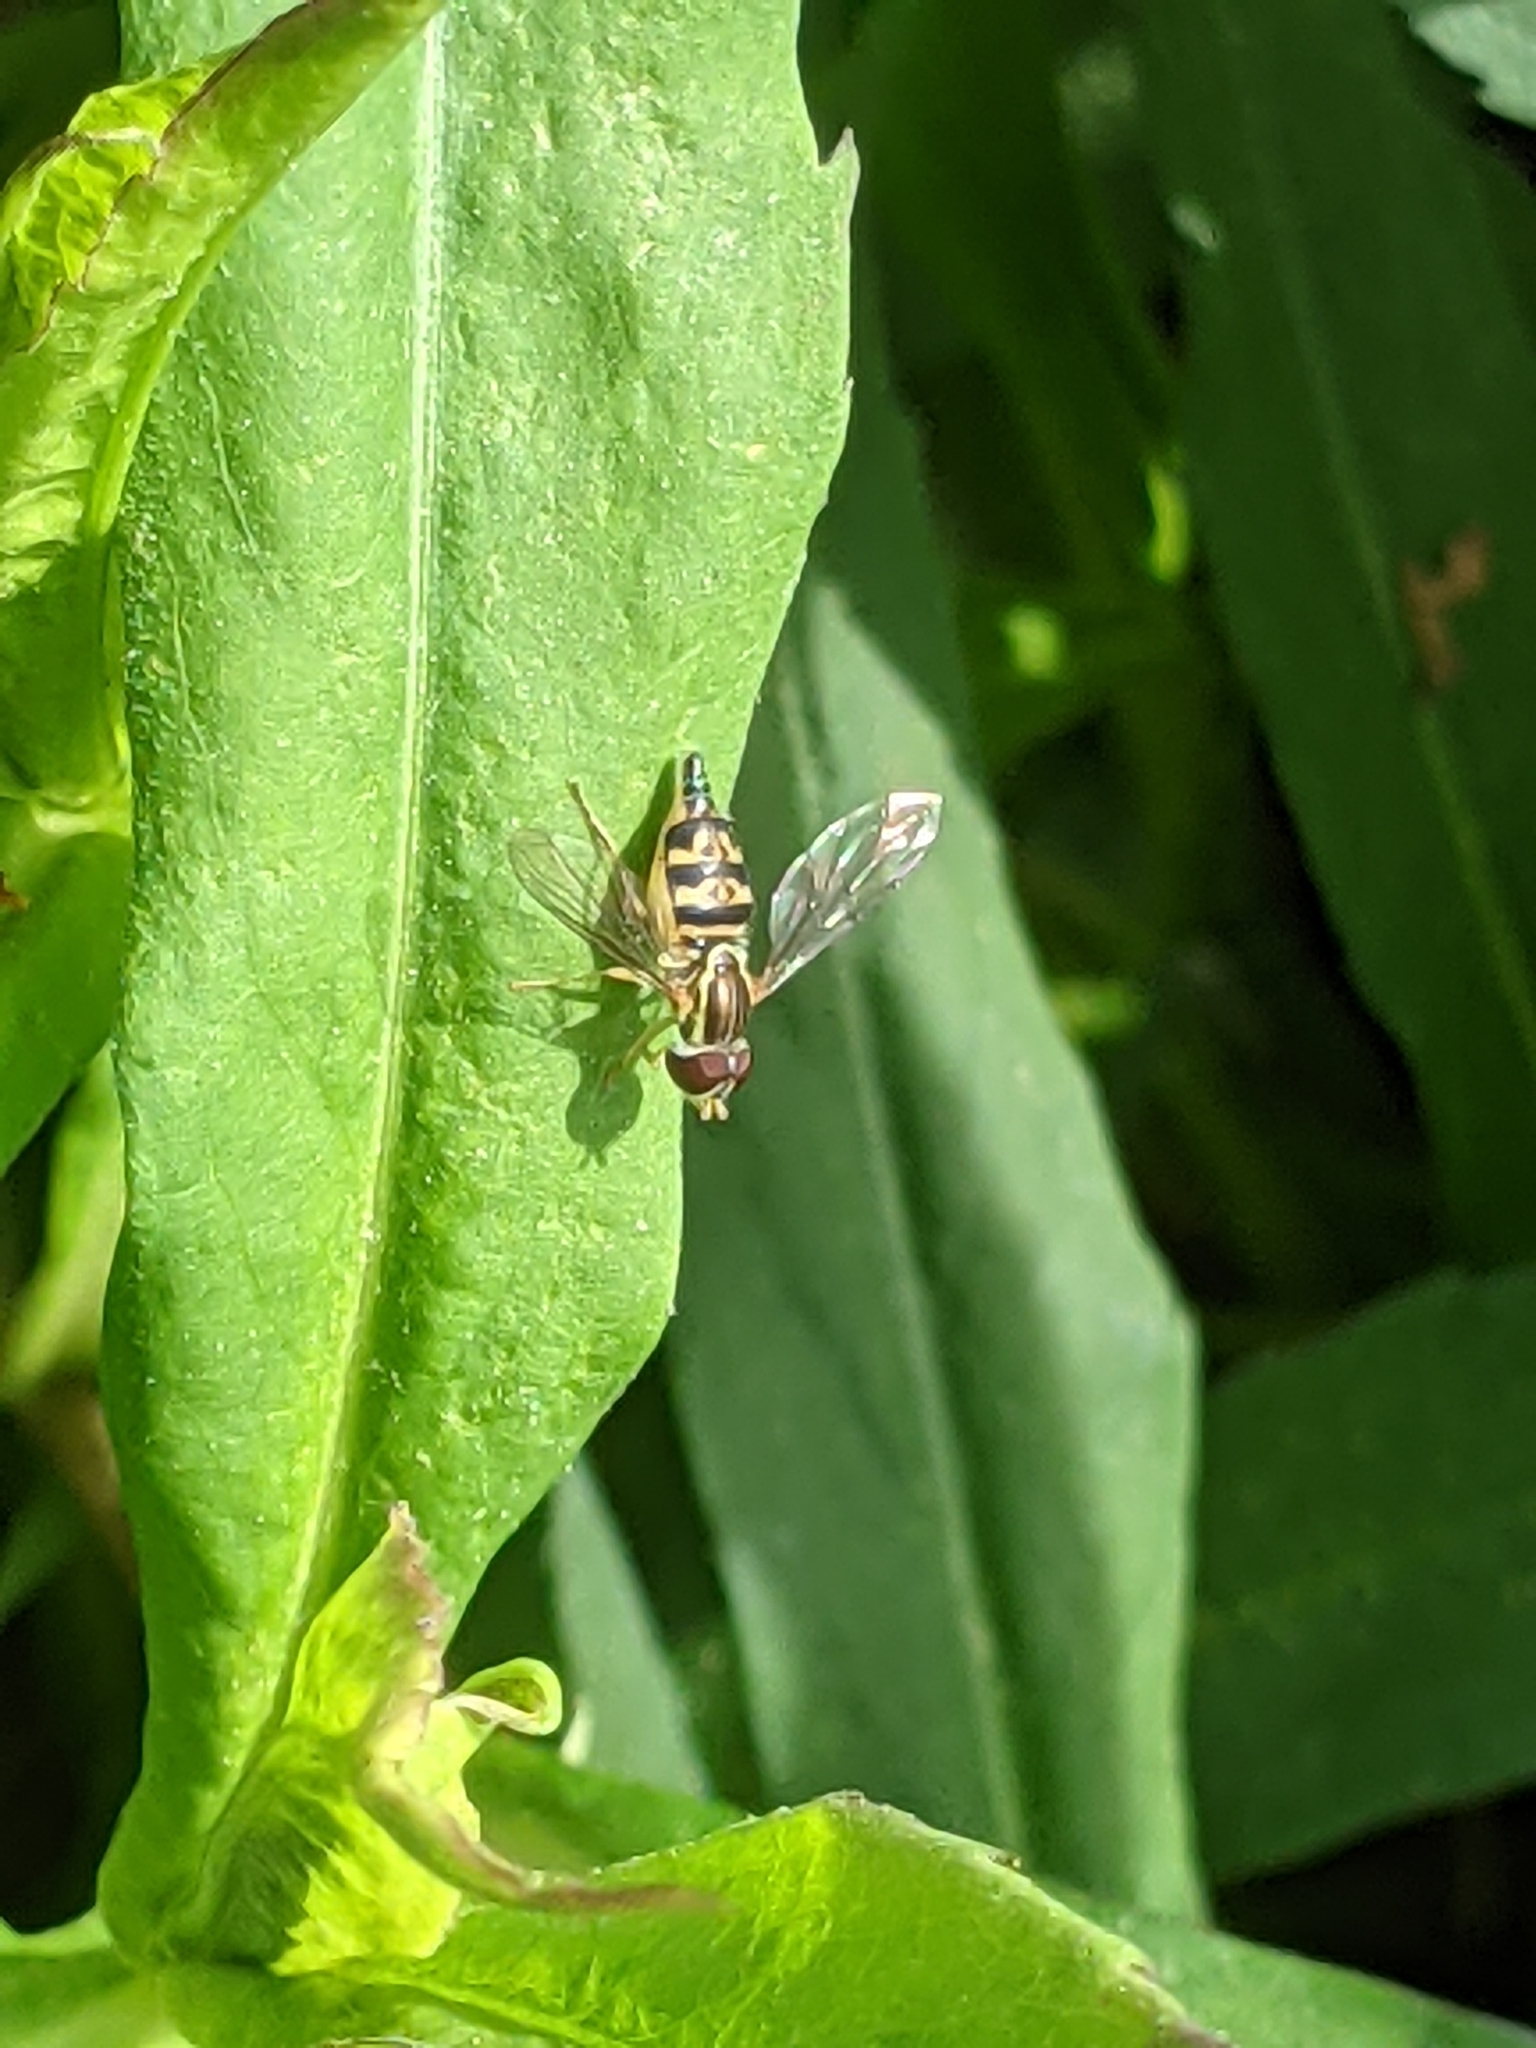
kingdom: Animalia
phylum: Arthropoda
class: Insecta
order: Diptera
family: Syrphidae
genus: Toxomerus
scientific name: Toxomerus geminatus
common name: Eastern calligrapher
